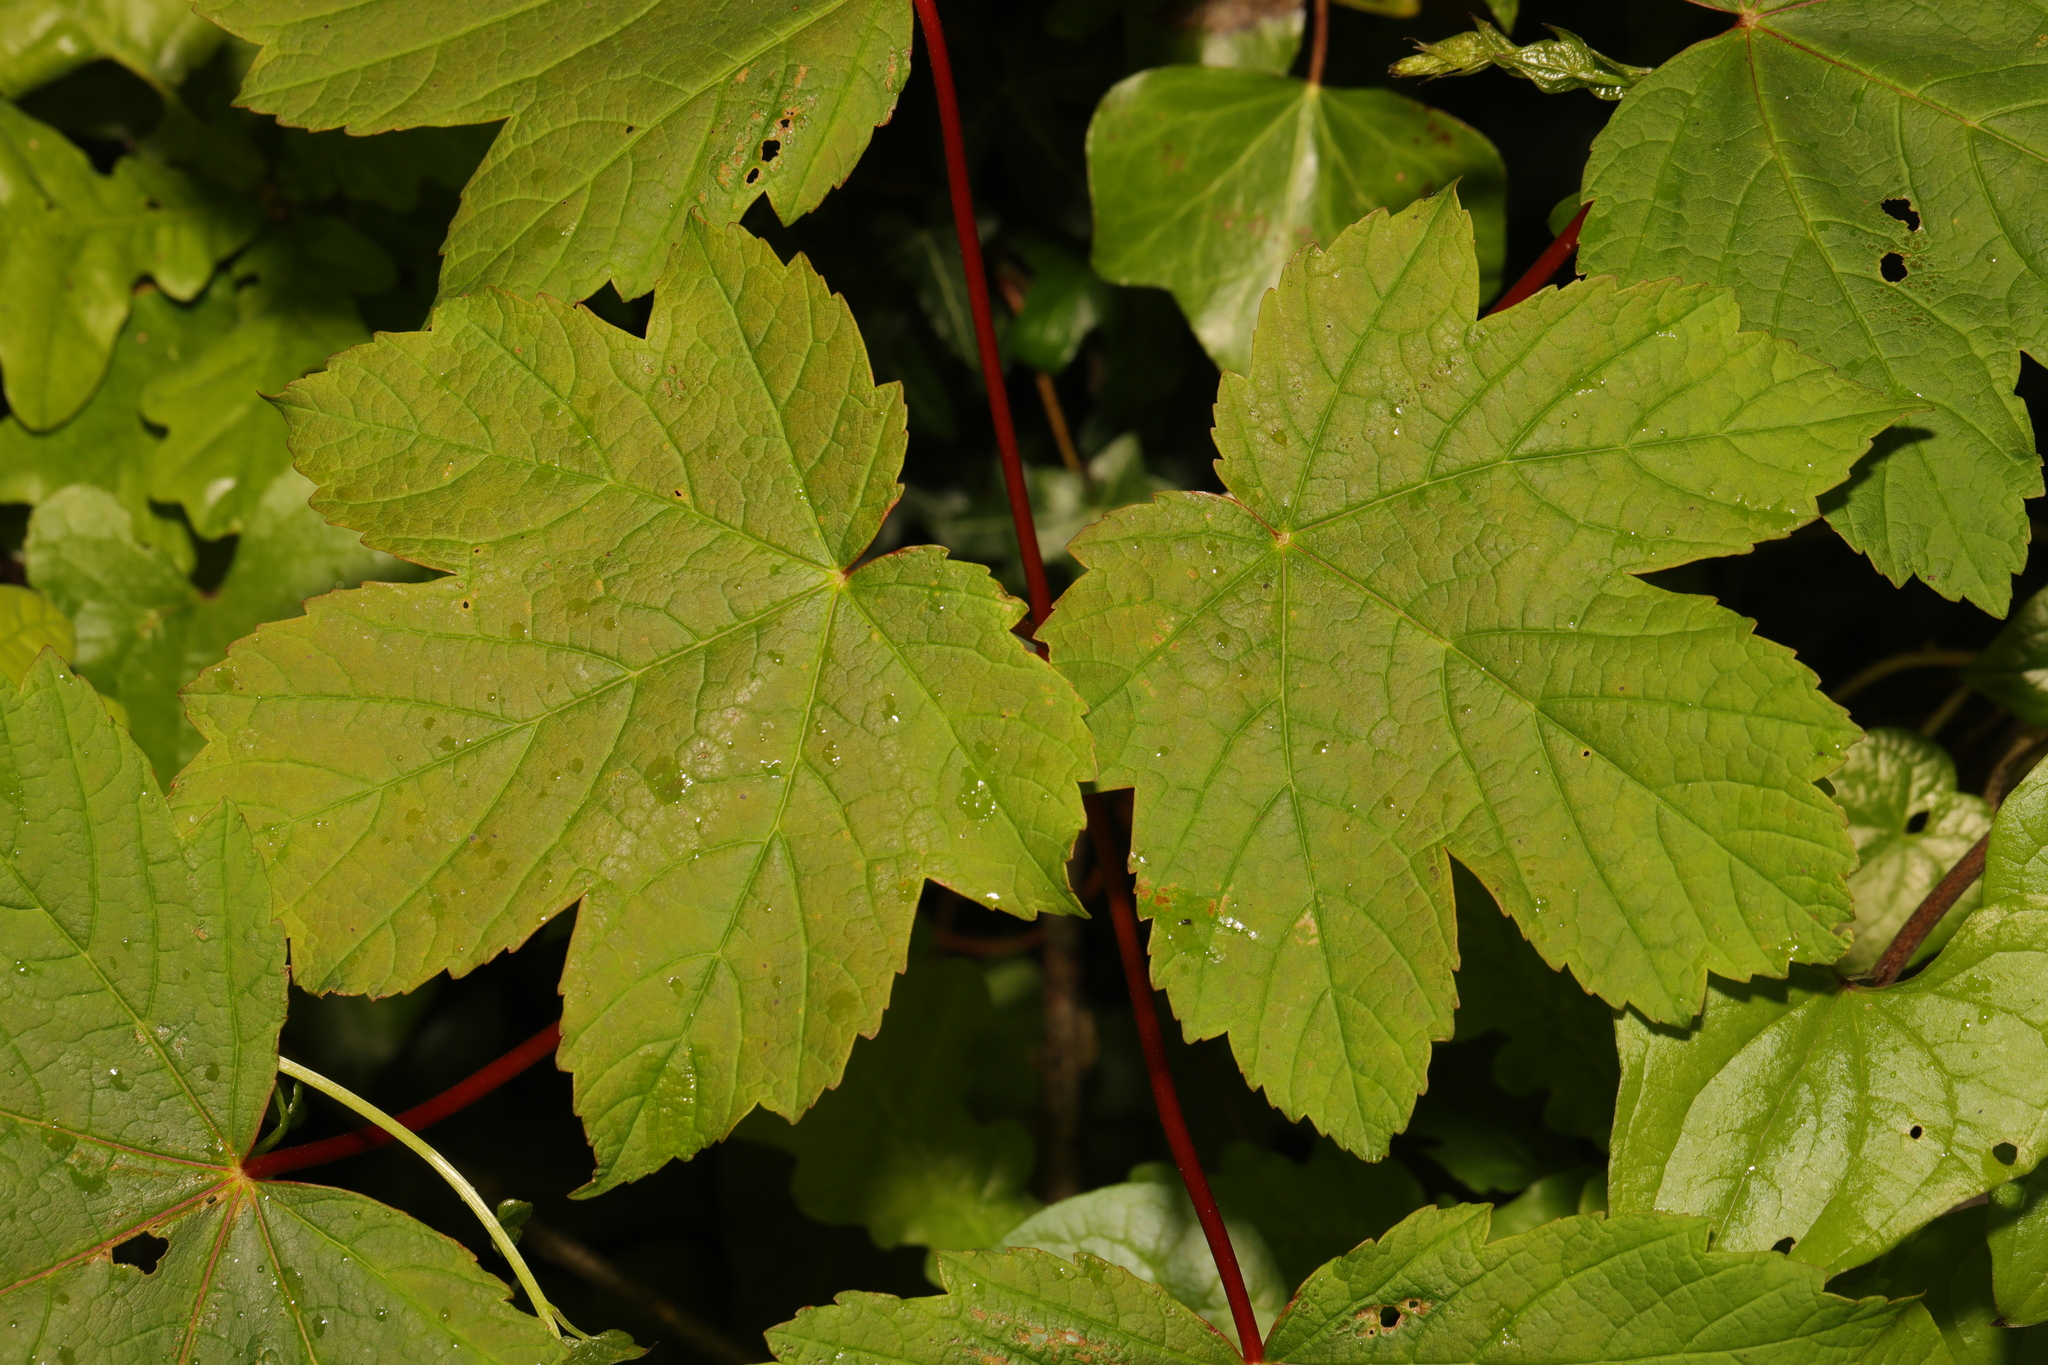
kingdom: Plantae
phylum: Tracheophyta
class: Magnoliopsida
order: Sapindales
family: Sapindaceae
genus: Acer
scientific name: Acer pseudoplatanus
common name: Sycamore
